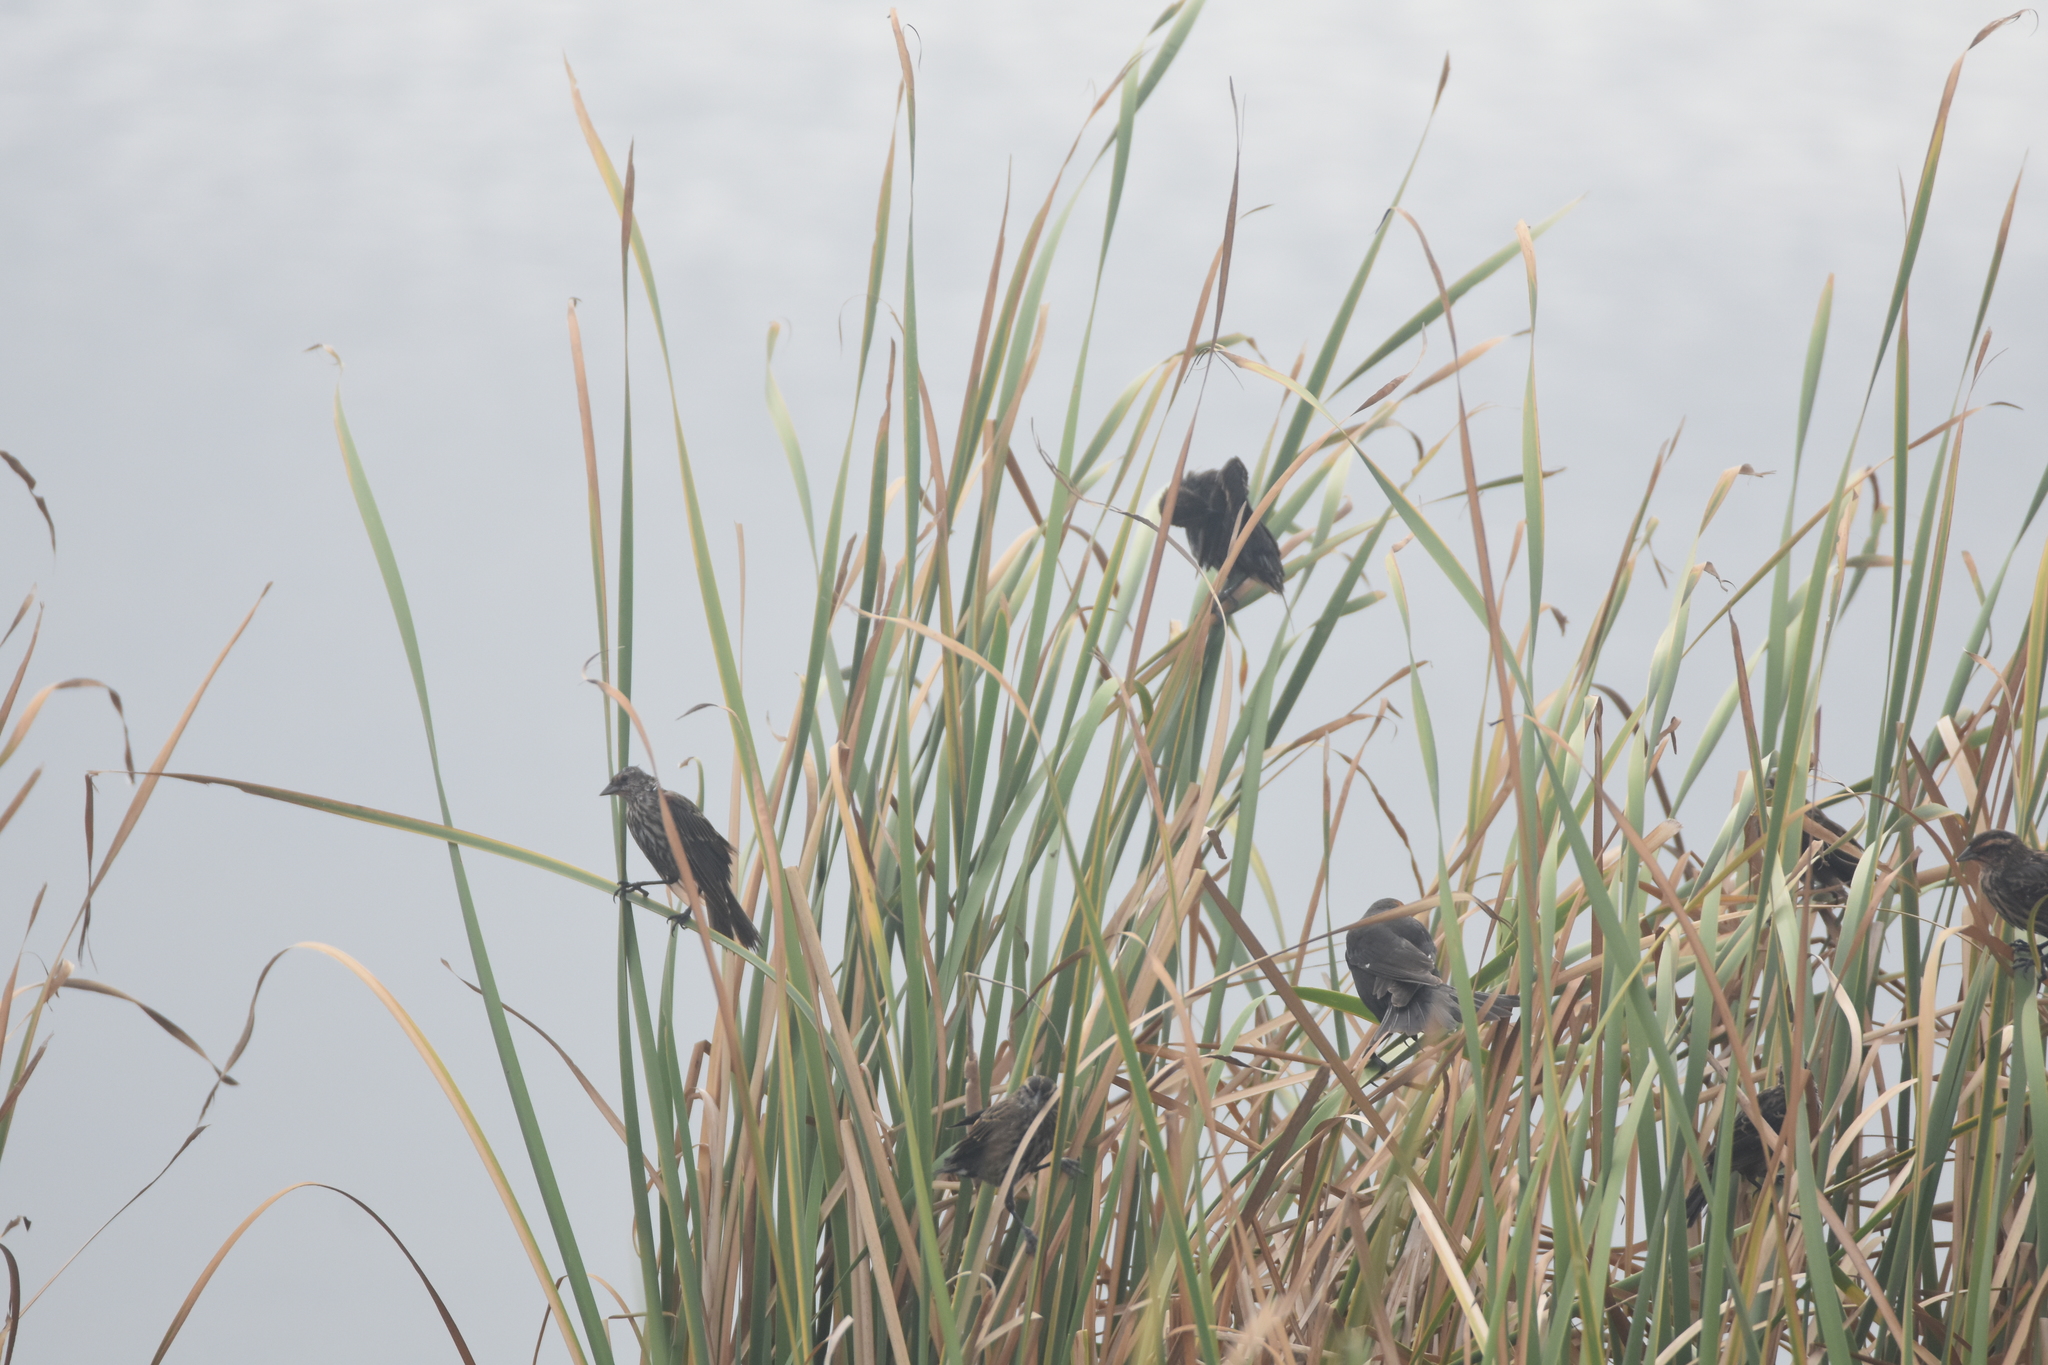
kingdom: Animalia
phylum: Chordata
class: Aves
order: Passeriformes
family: Icteridae
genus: Agelaius
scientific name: Agelaius phoeniceus
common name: Red-winged blackbird
